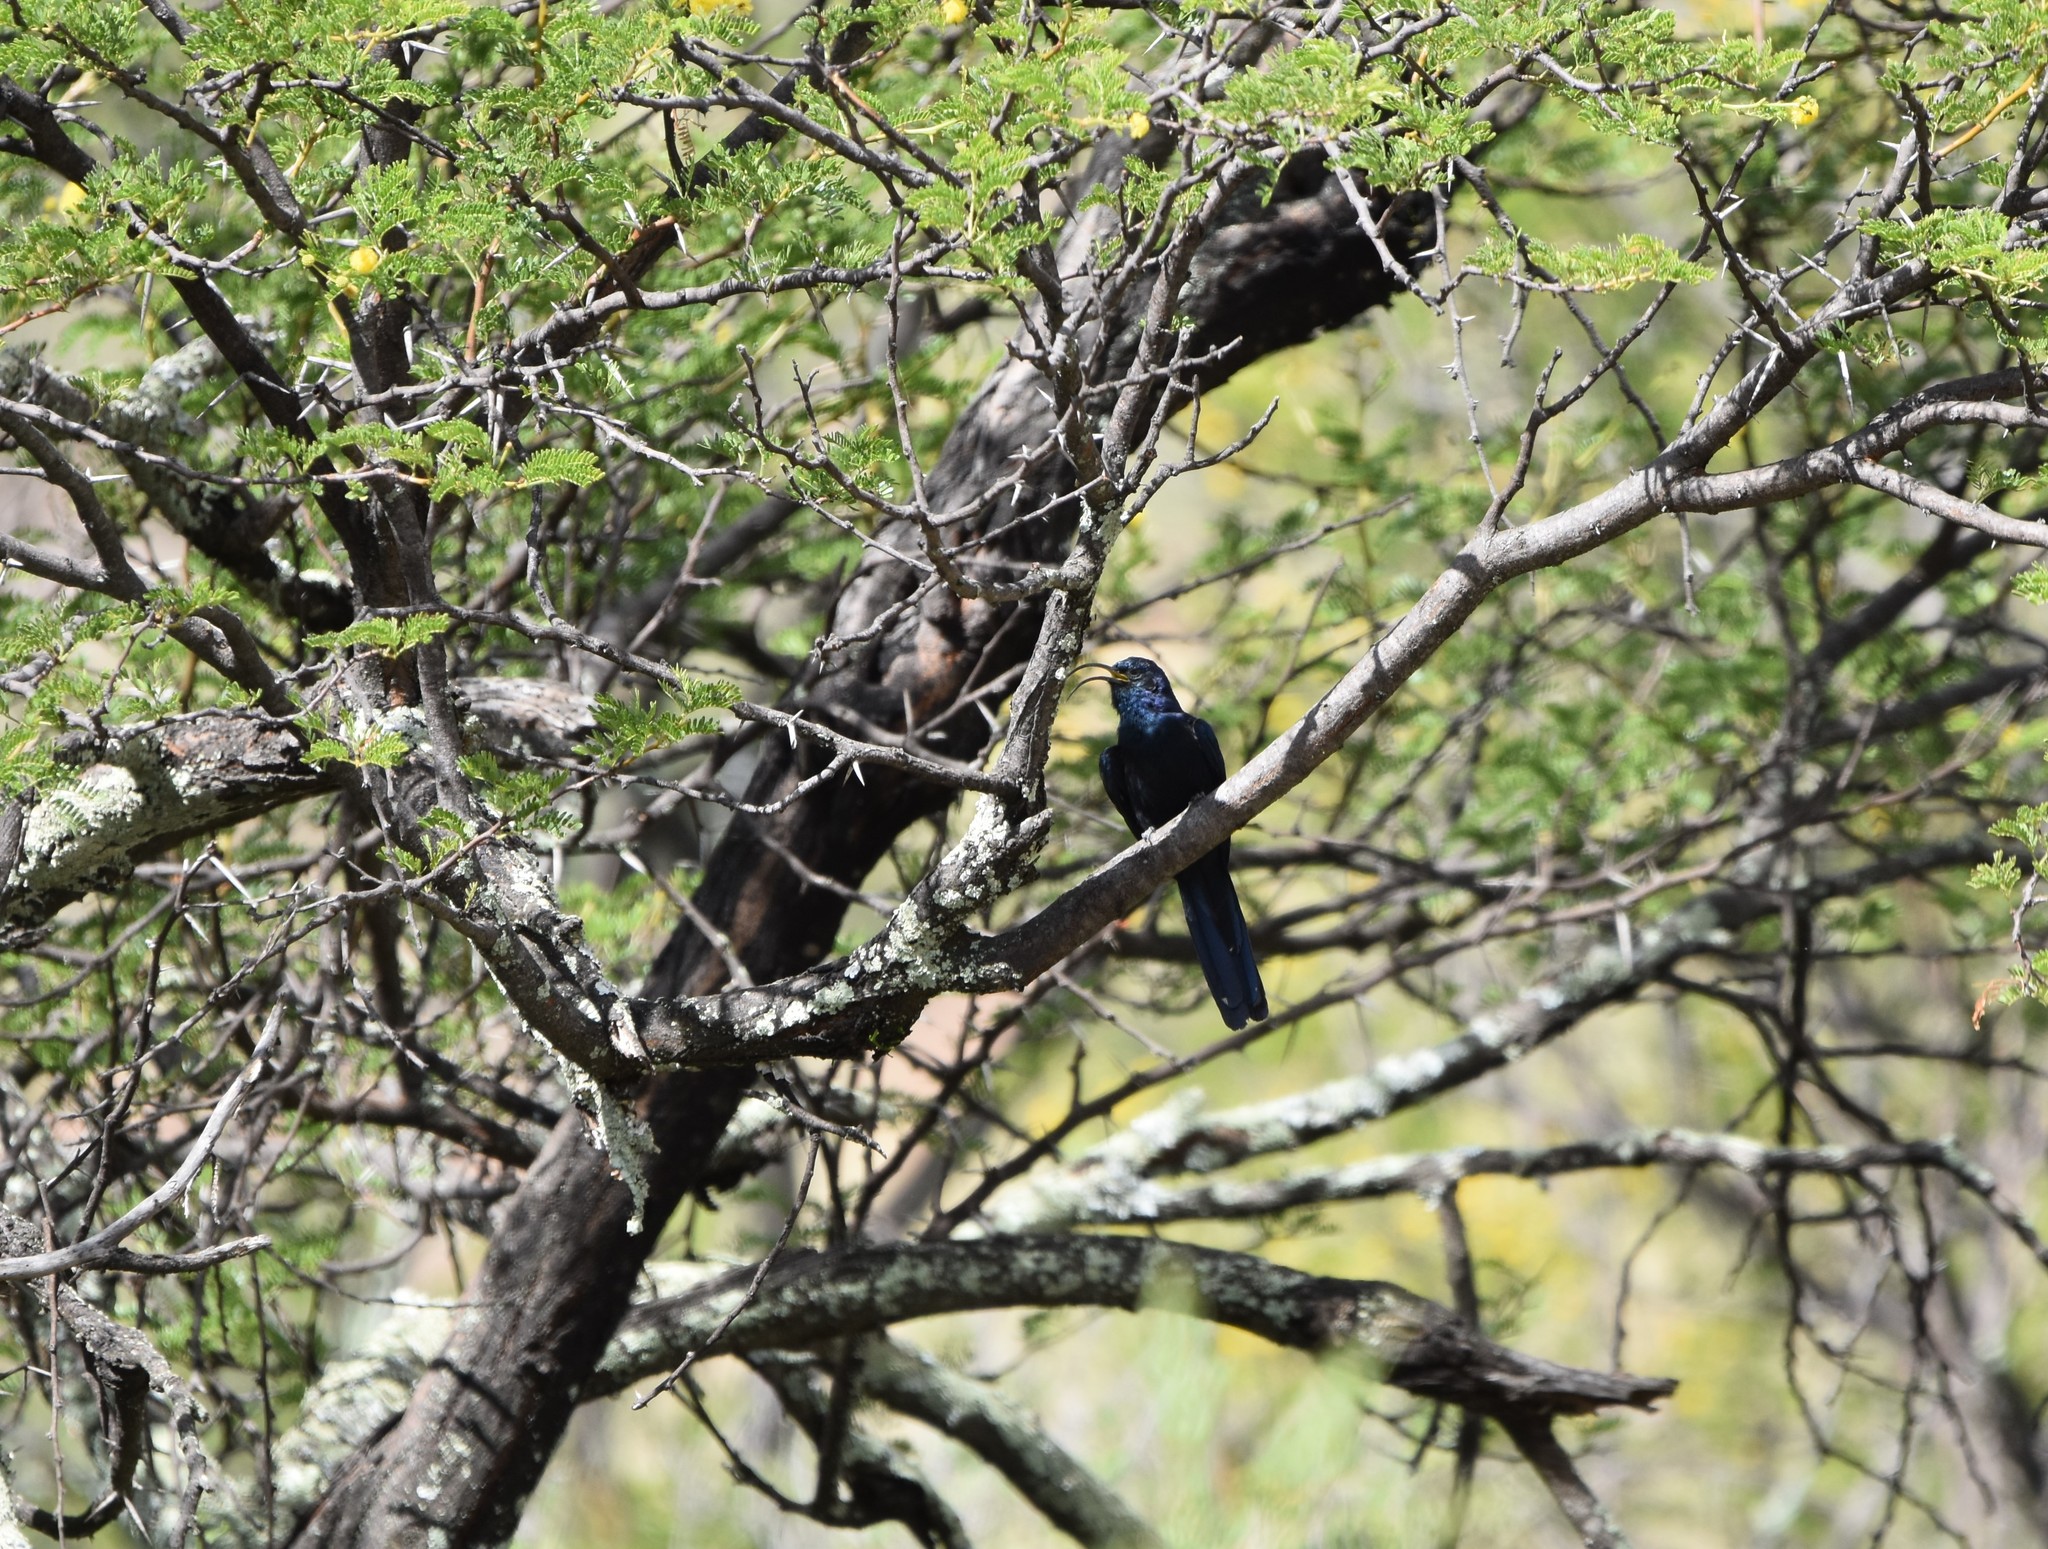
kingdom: Animalia
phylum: Chordata
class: Aves
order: Bucerotiformes
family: Phoeniculidae
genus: Rhinopomastus
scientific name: Rhinopomastus cyanomelas
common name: Common scimitarbill
